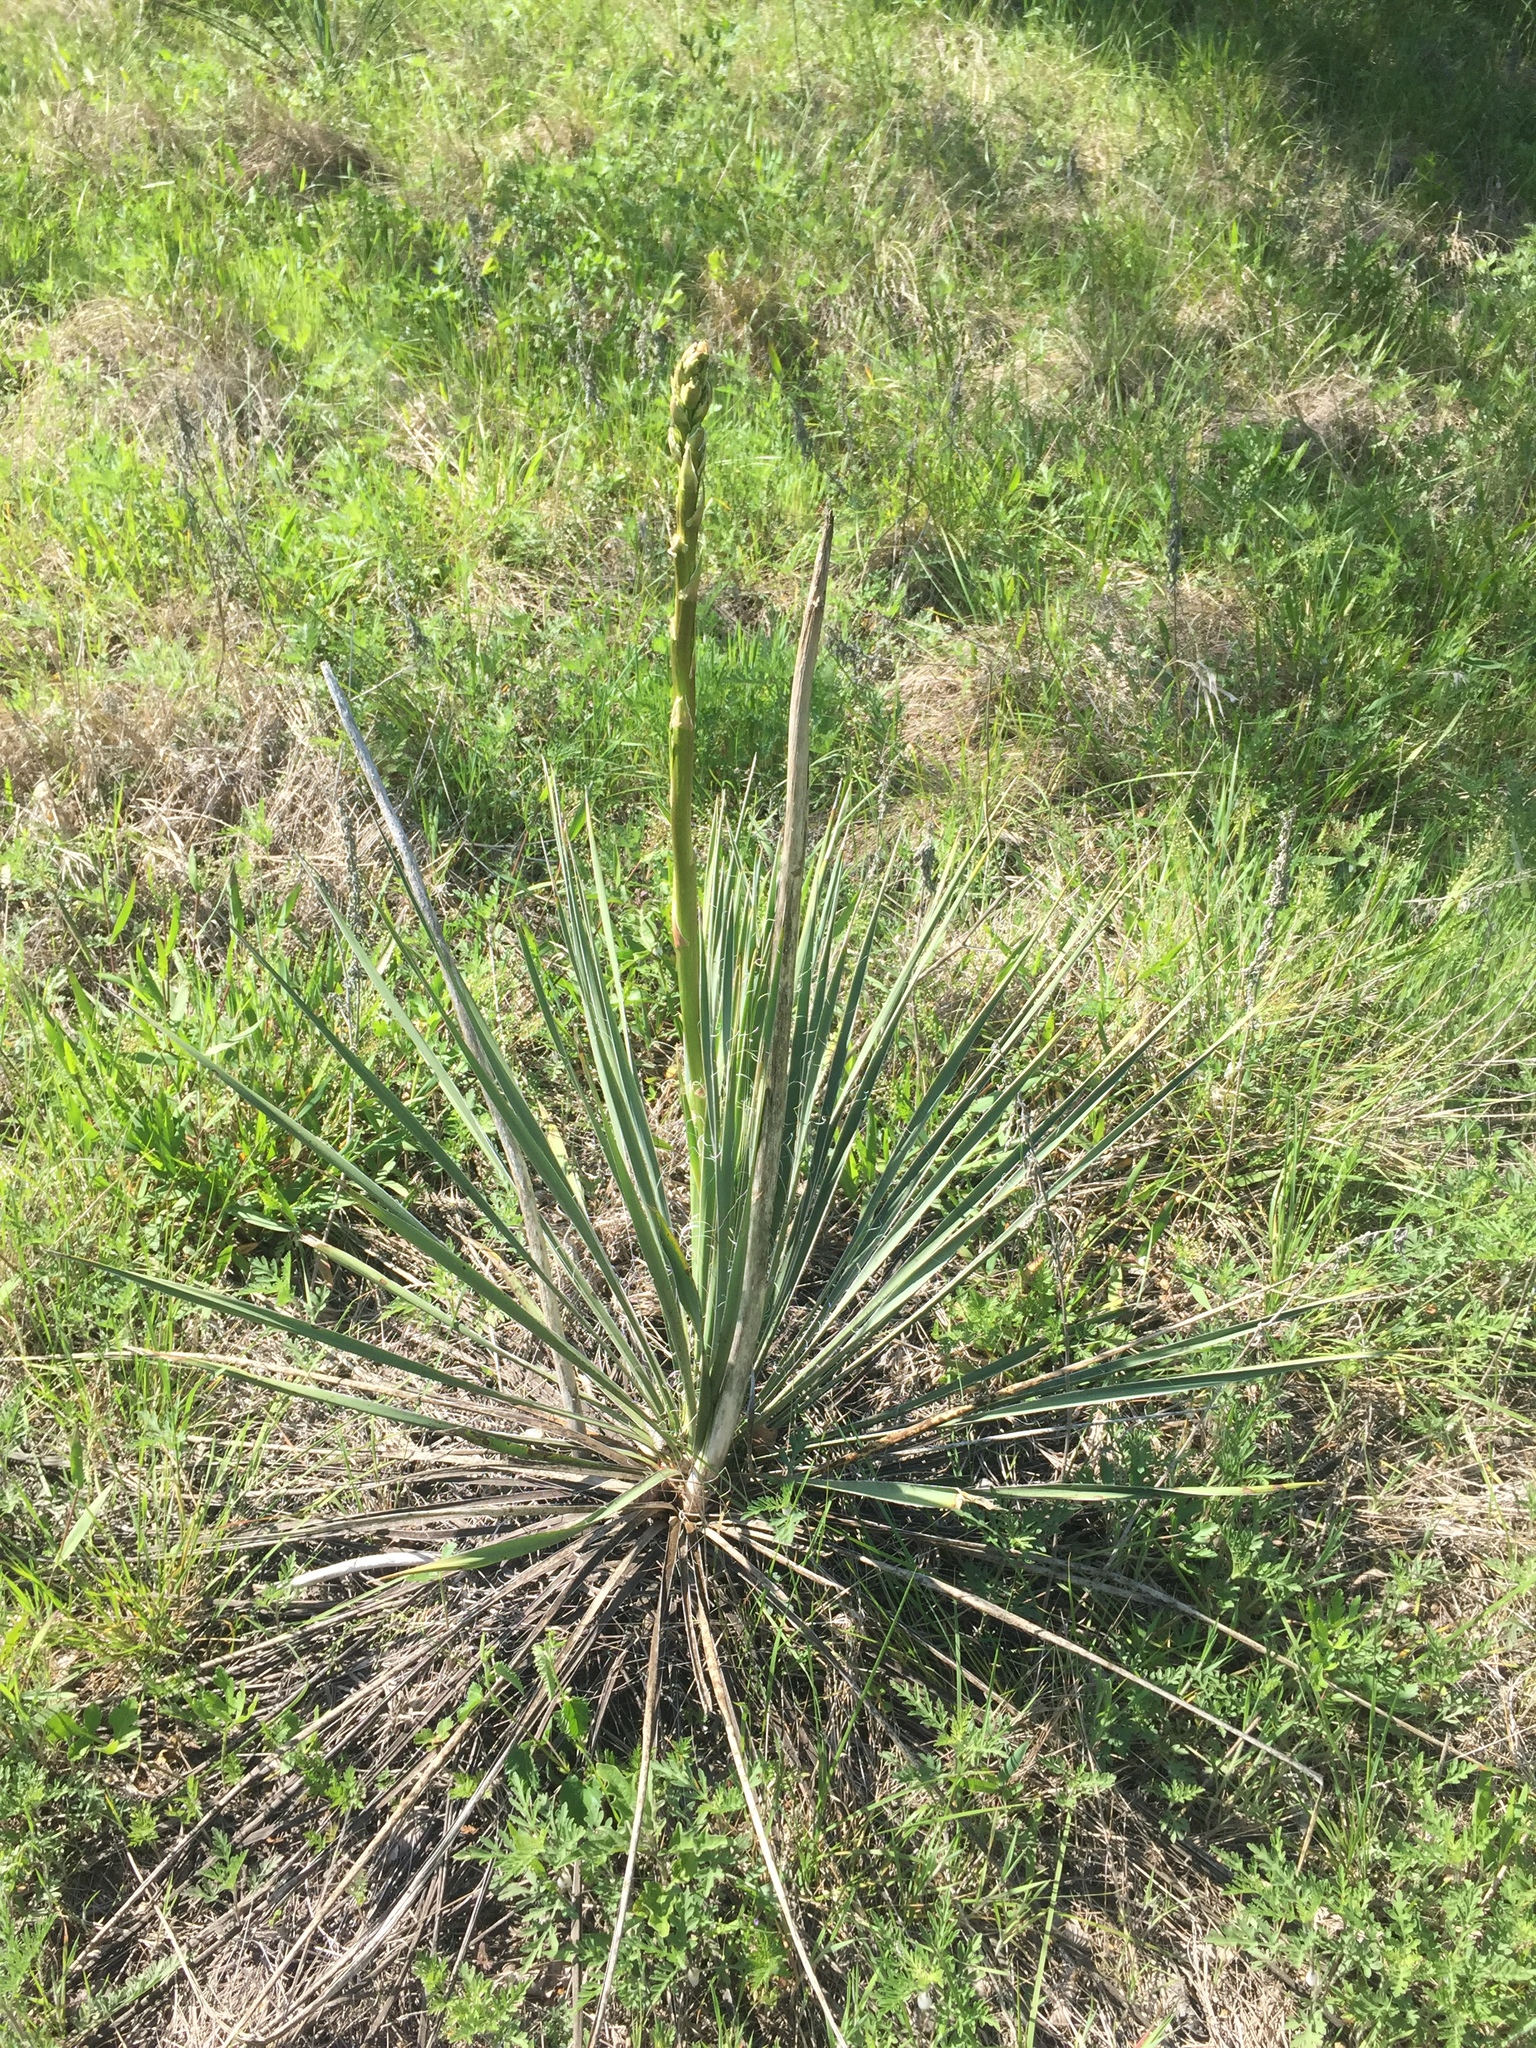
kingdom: Plantae
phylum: Tracheophyta
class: Liliopsida
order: Asparagales
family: Asparagaceae
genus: Yucca
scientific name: Yucca arkansana
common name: Arkansas yucca
